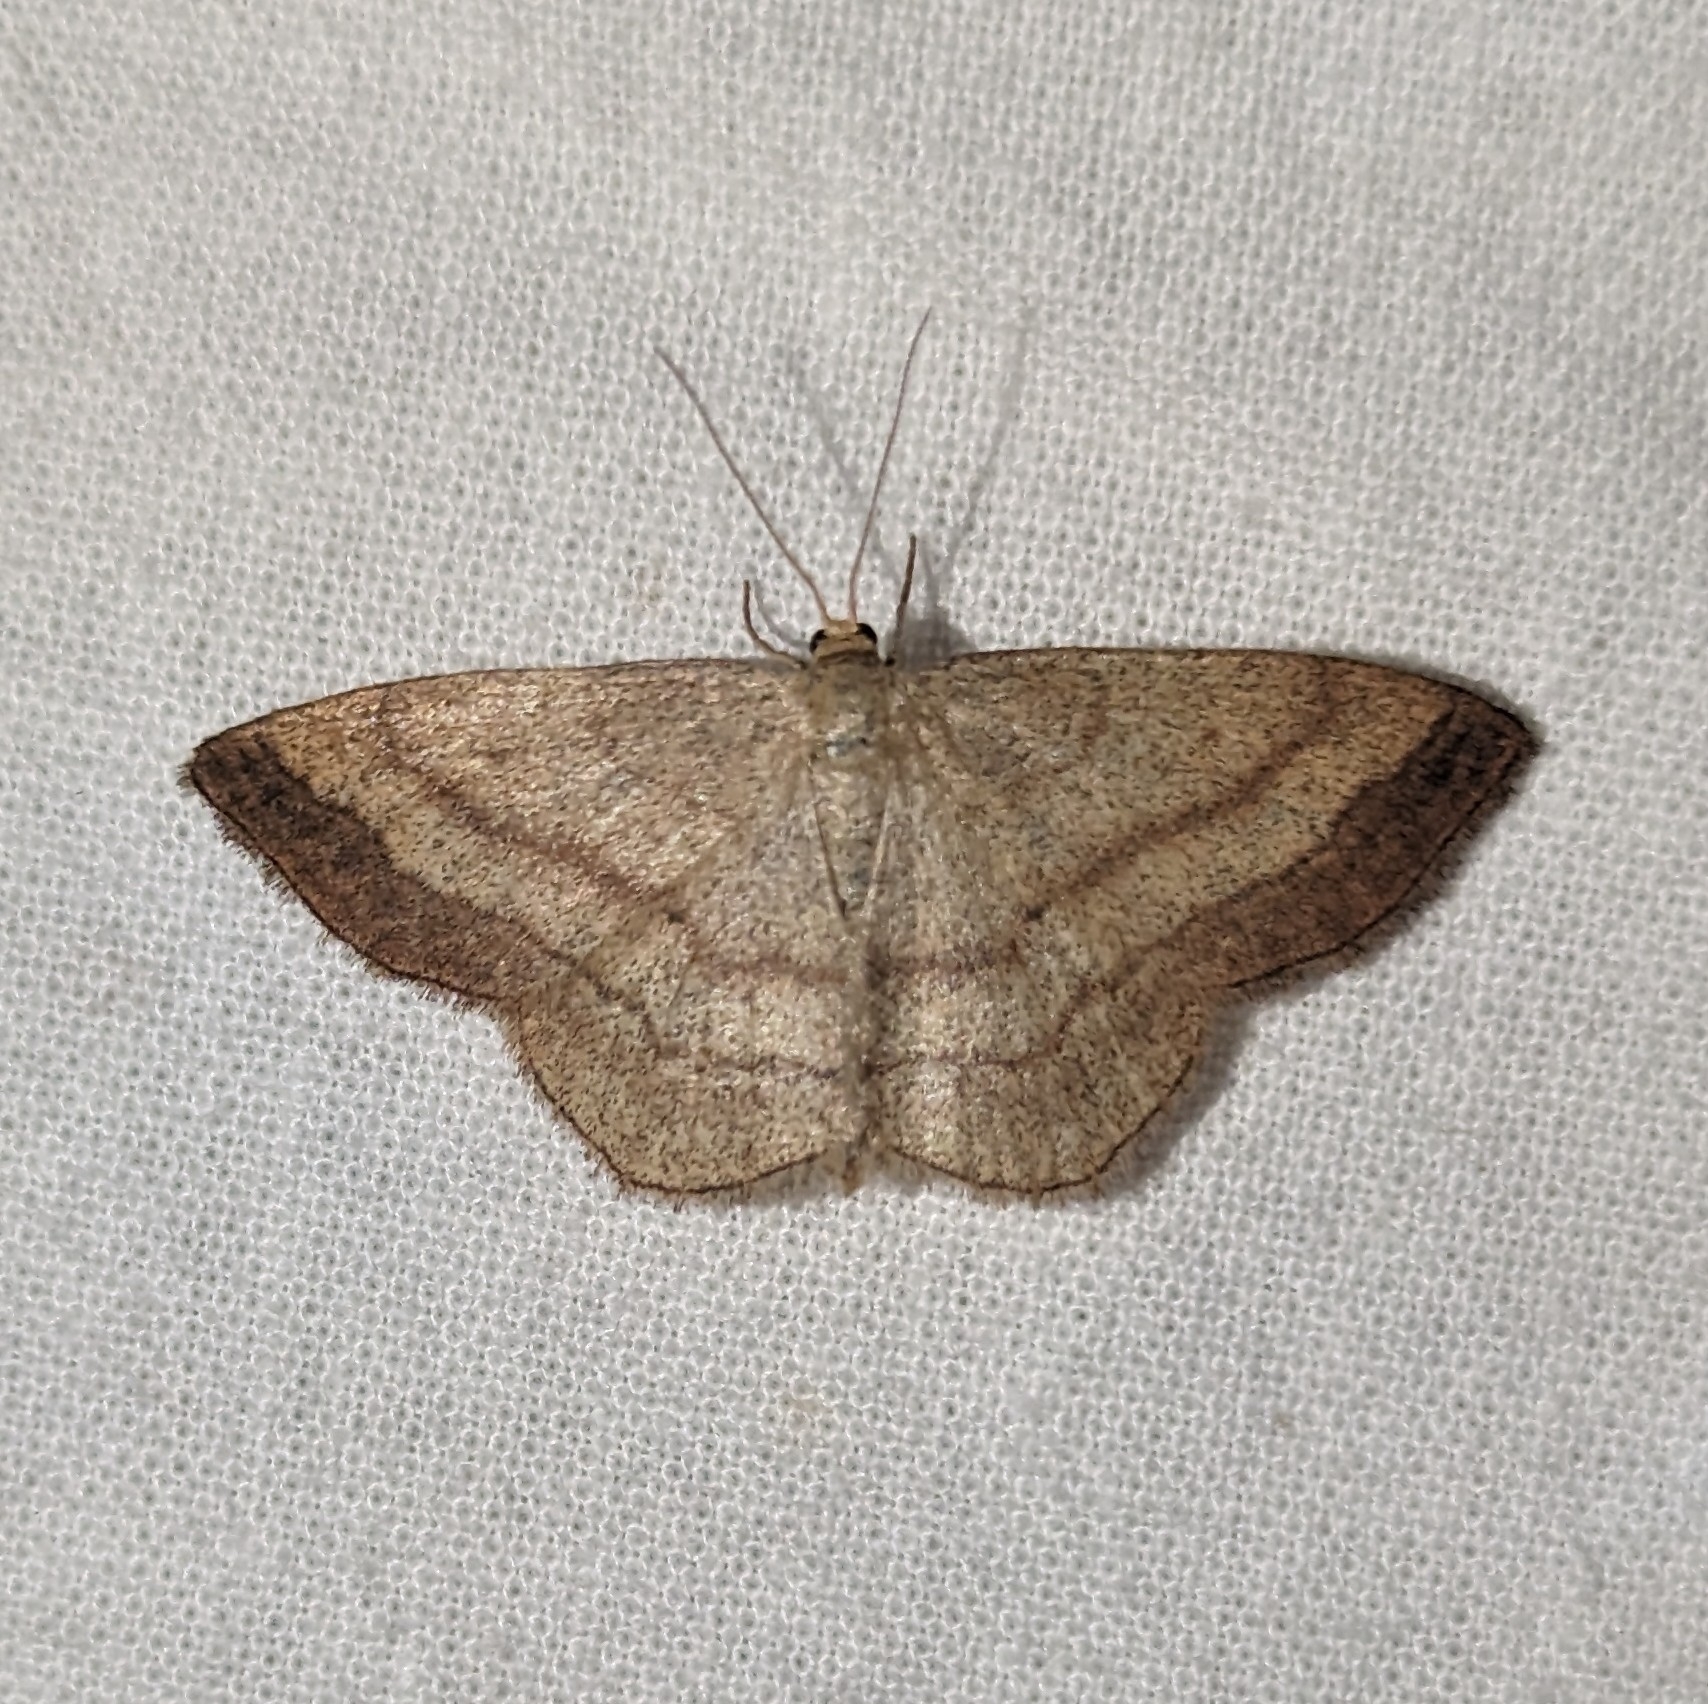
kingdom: Animalia
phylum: Arthropoda
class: Insecta
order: Lepidoptera
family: Geometridae
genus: Scopula
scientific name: Scopula siccata
